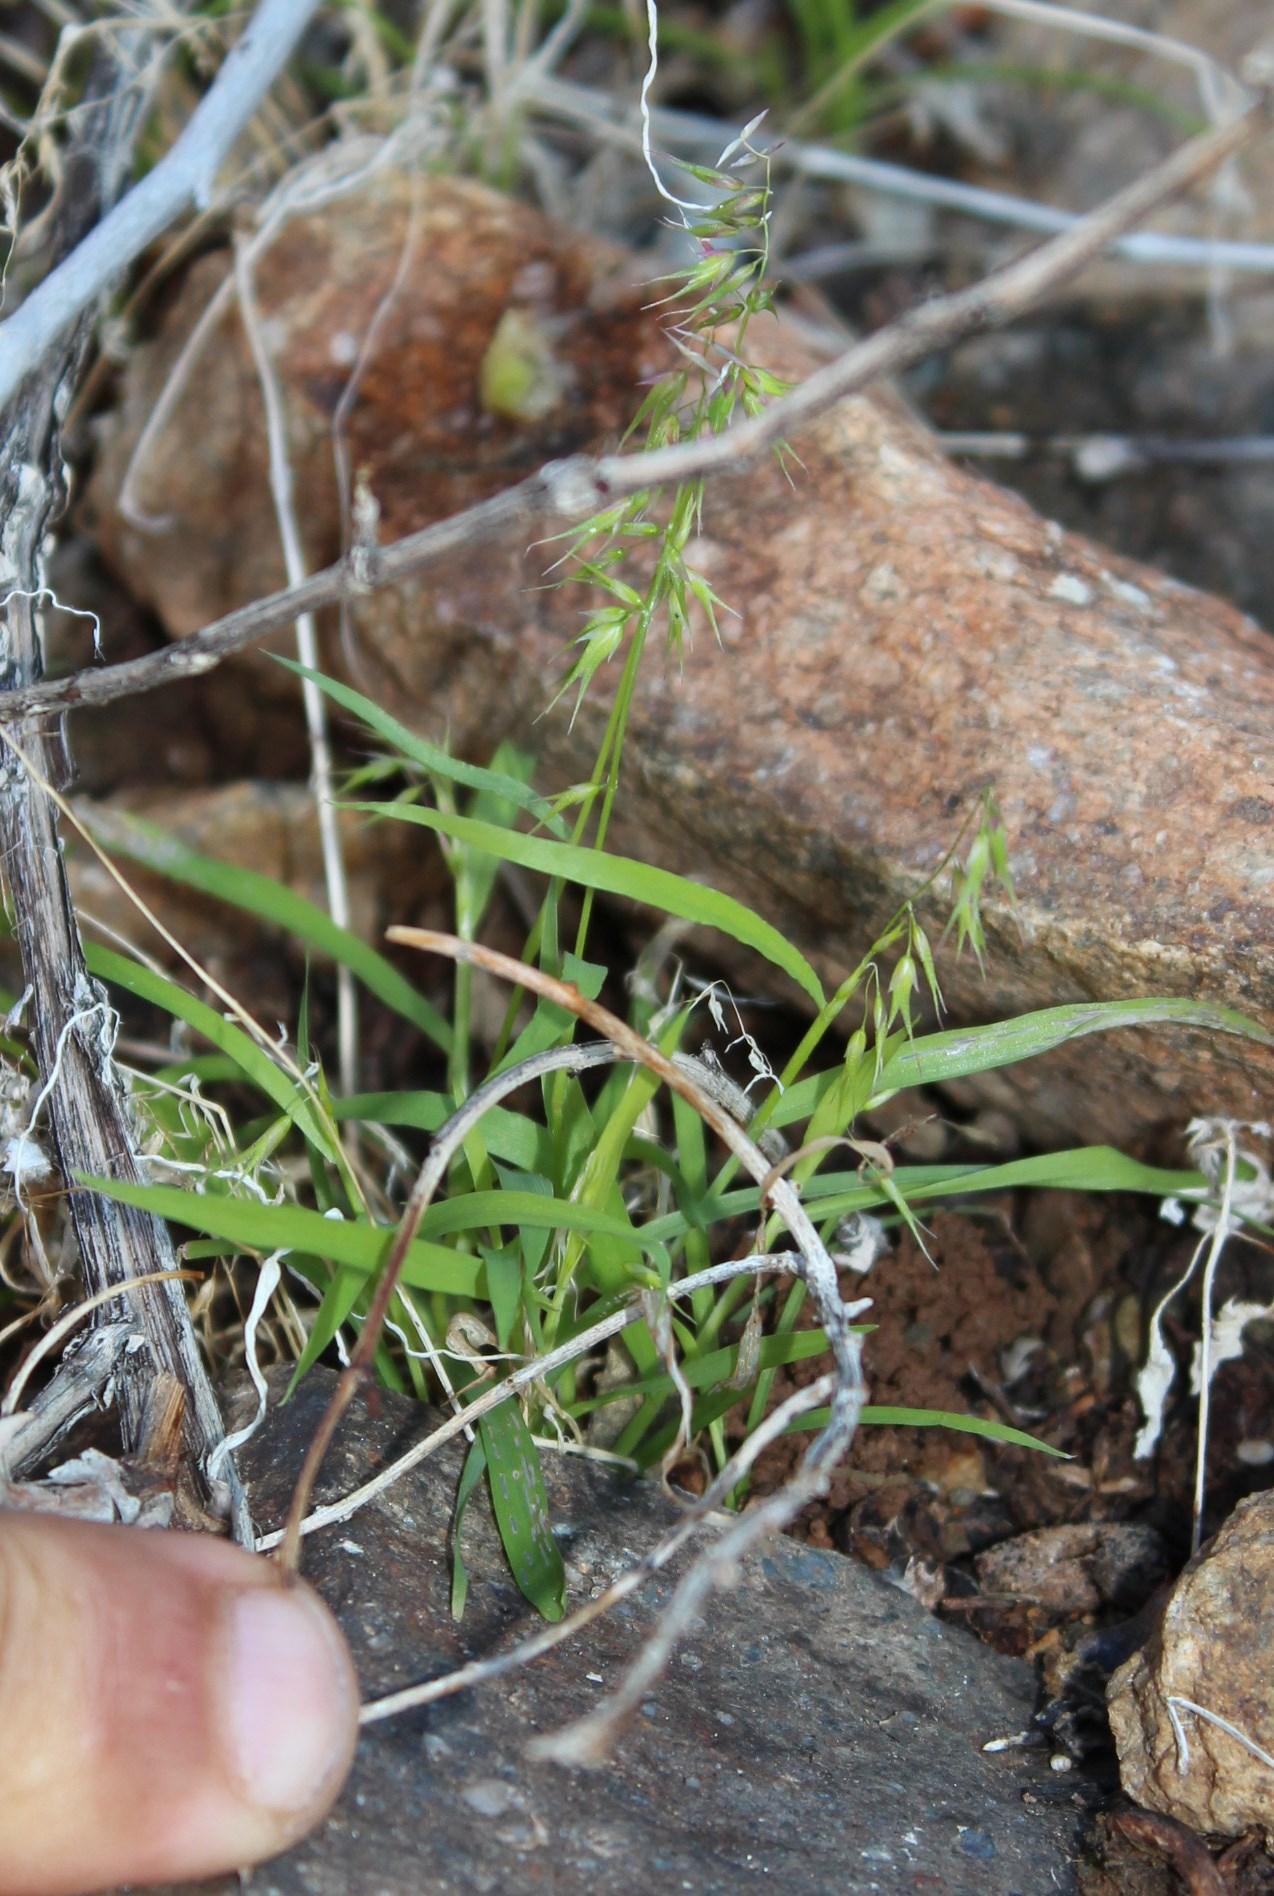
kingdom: Plantae
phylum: Tracheophyta
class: Liliopsida
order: Poales
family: Poaceae
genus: Ehrharta
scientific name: Ehrharta triandra
